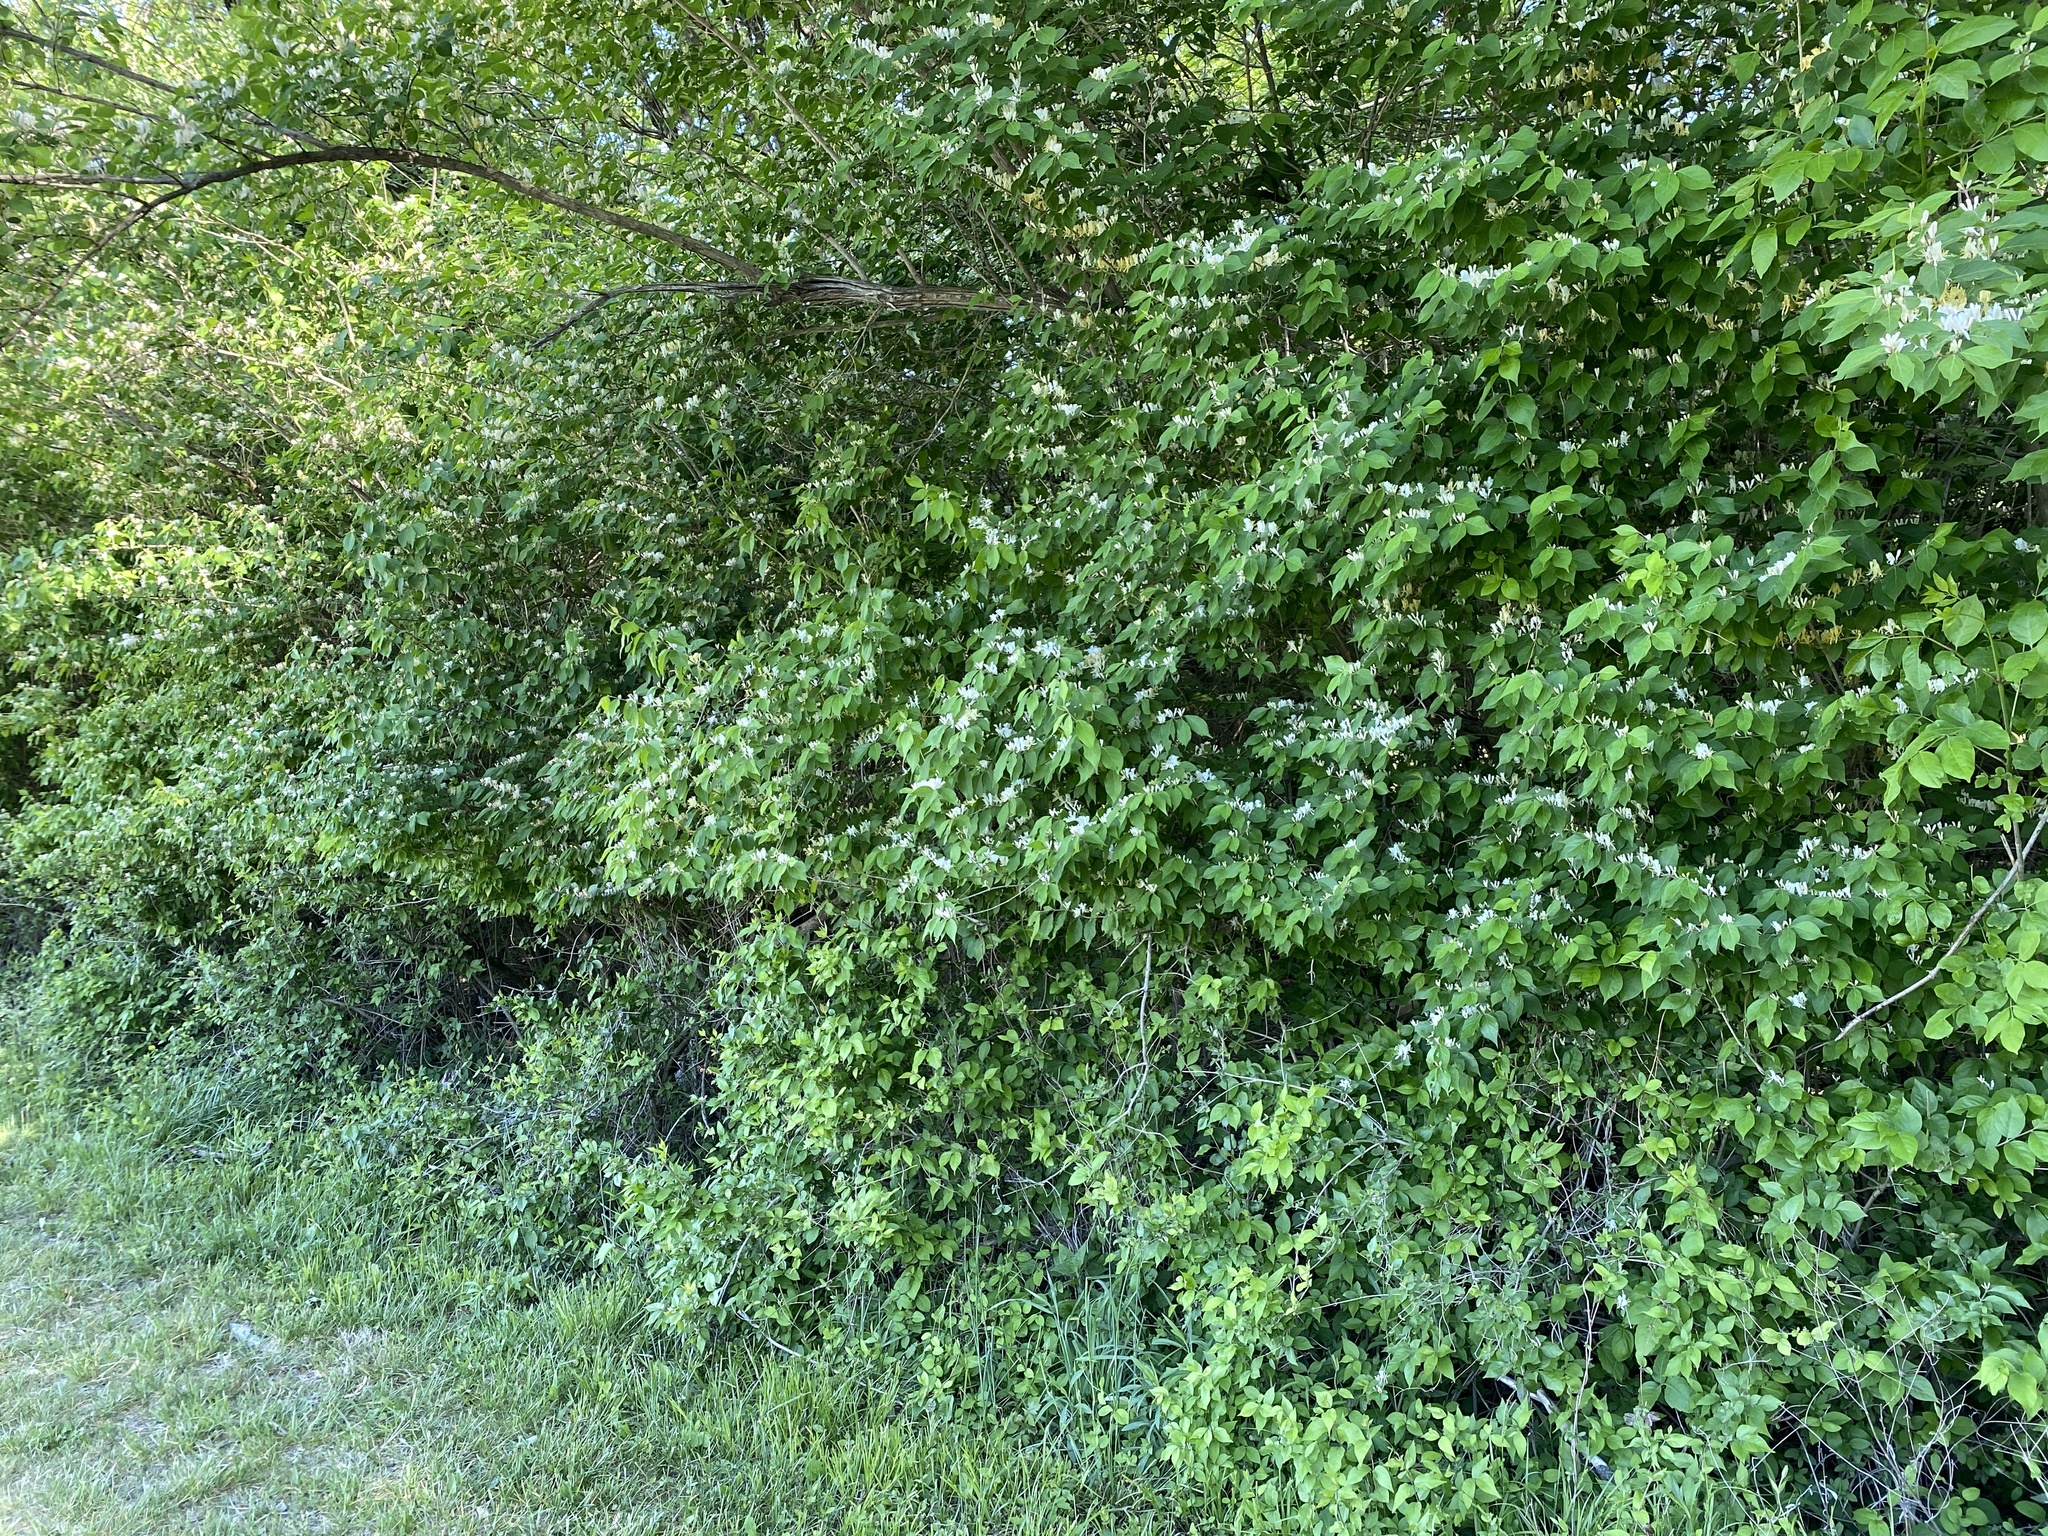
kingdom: Plantae
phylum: Tracheophyta
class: Magnoliopsida
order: Dipsacales
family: Caprifoliaceae
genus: Lonicera
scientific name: Lonicera maackii
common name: Amur honeysuckle
